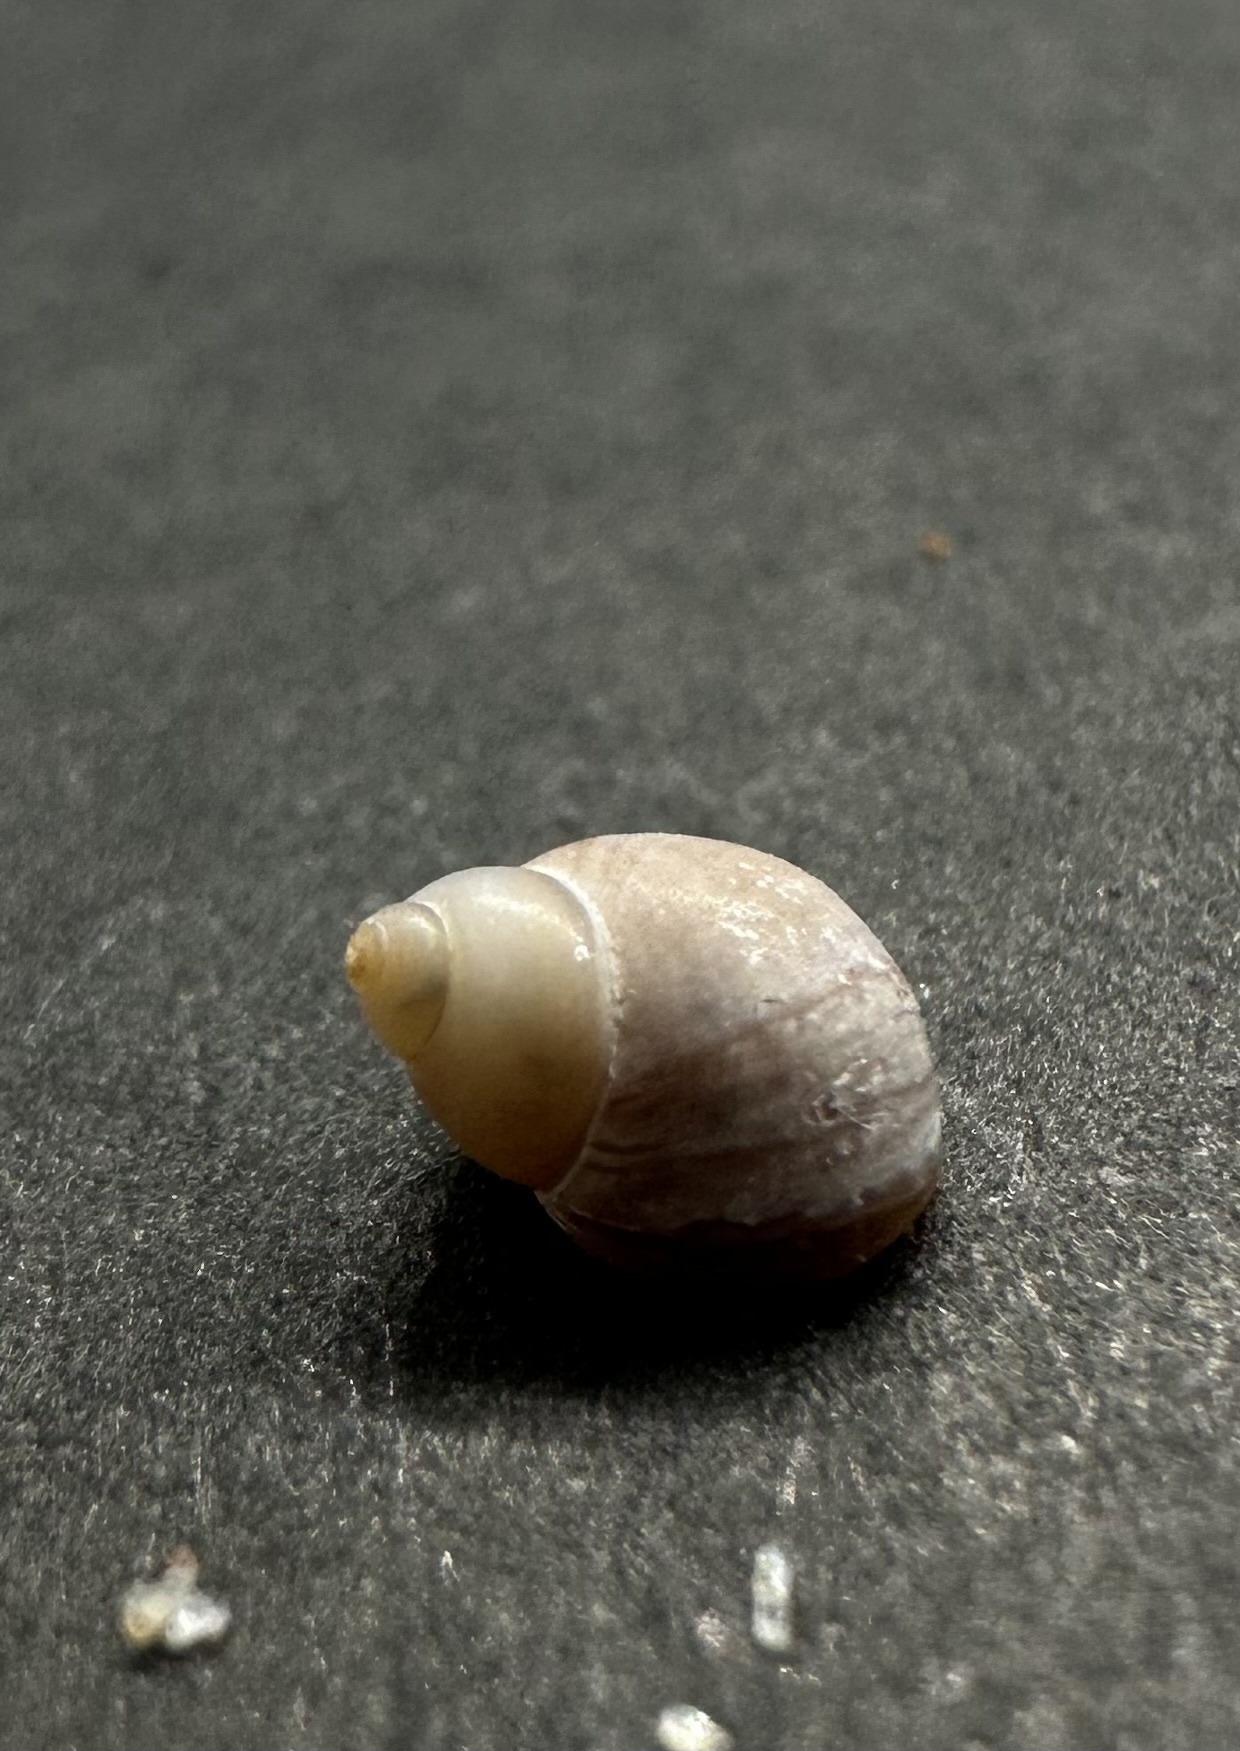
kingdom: Animalia
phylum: Mollusca
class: Gastropoda
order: Littorinimorpha
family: Littorinidae
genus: Lacuna
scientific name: Lacuna vincta
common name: Banded chink shell
